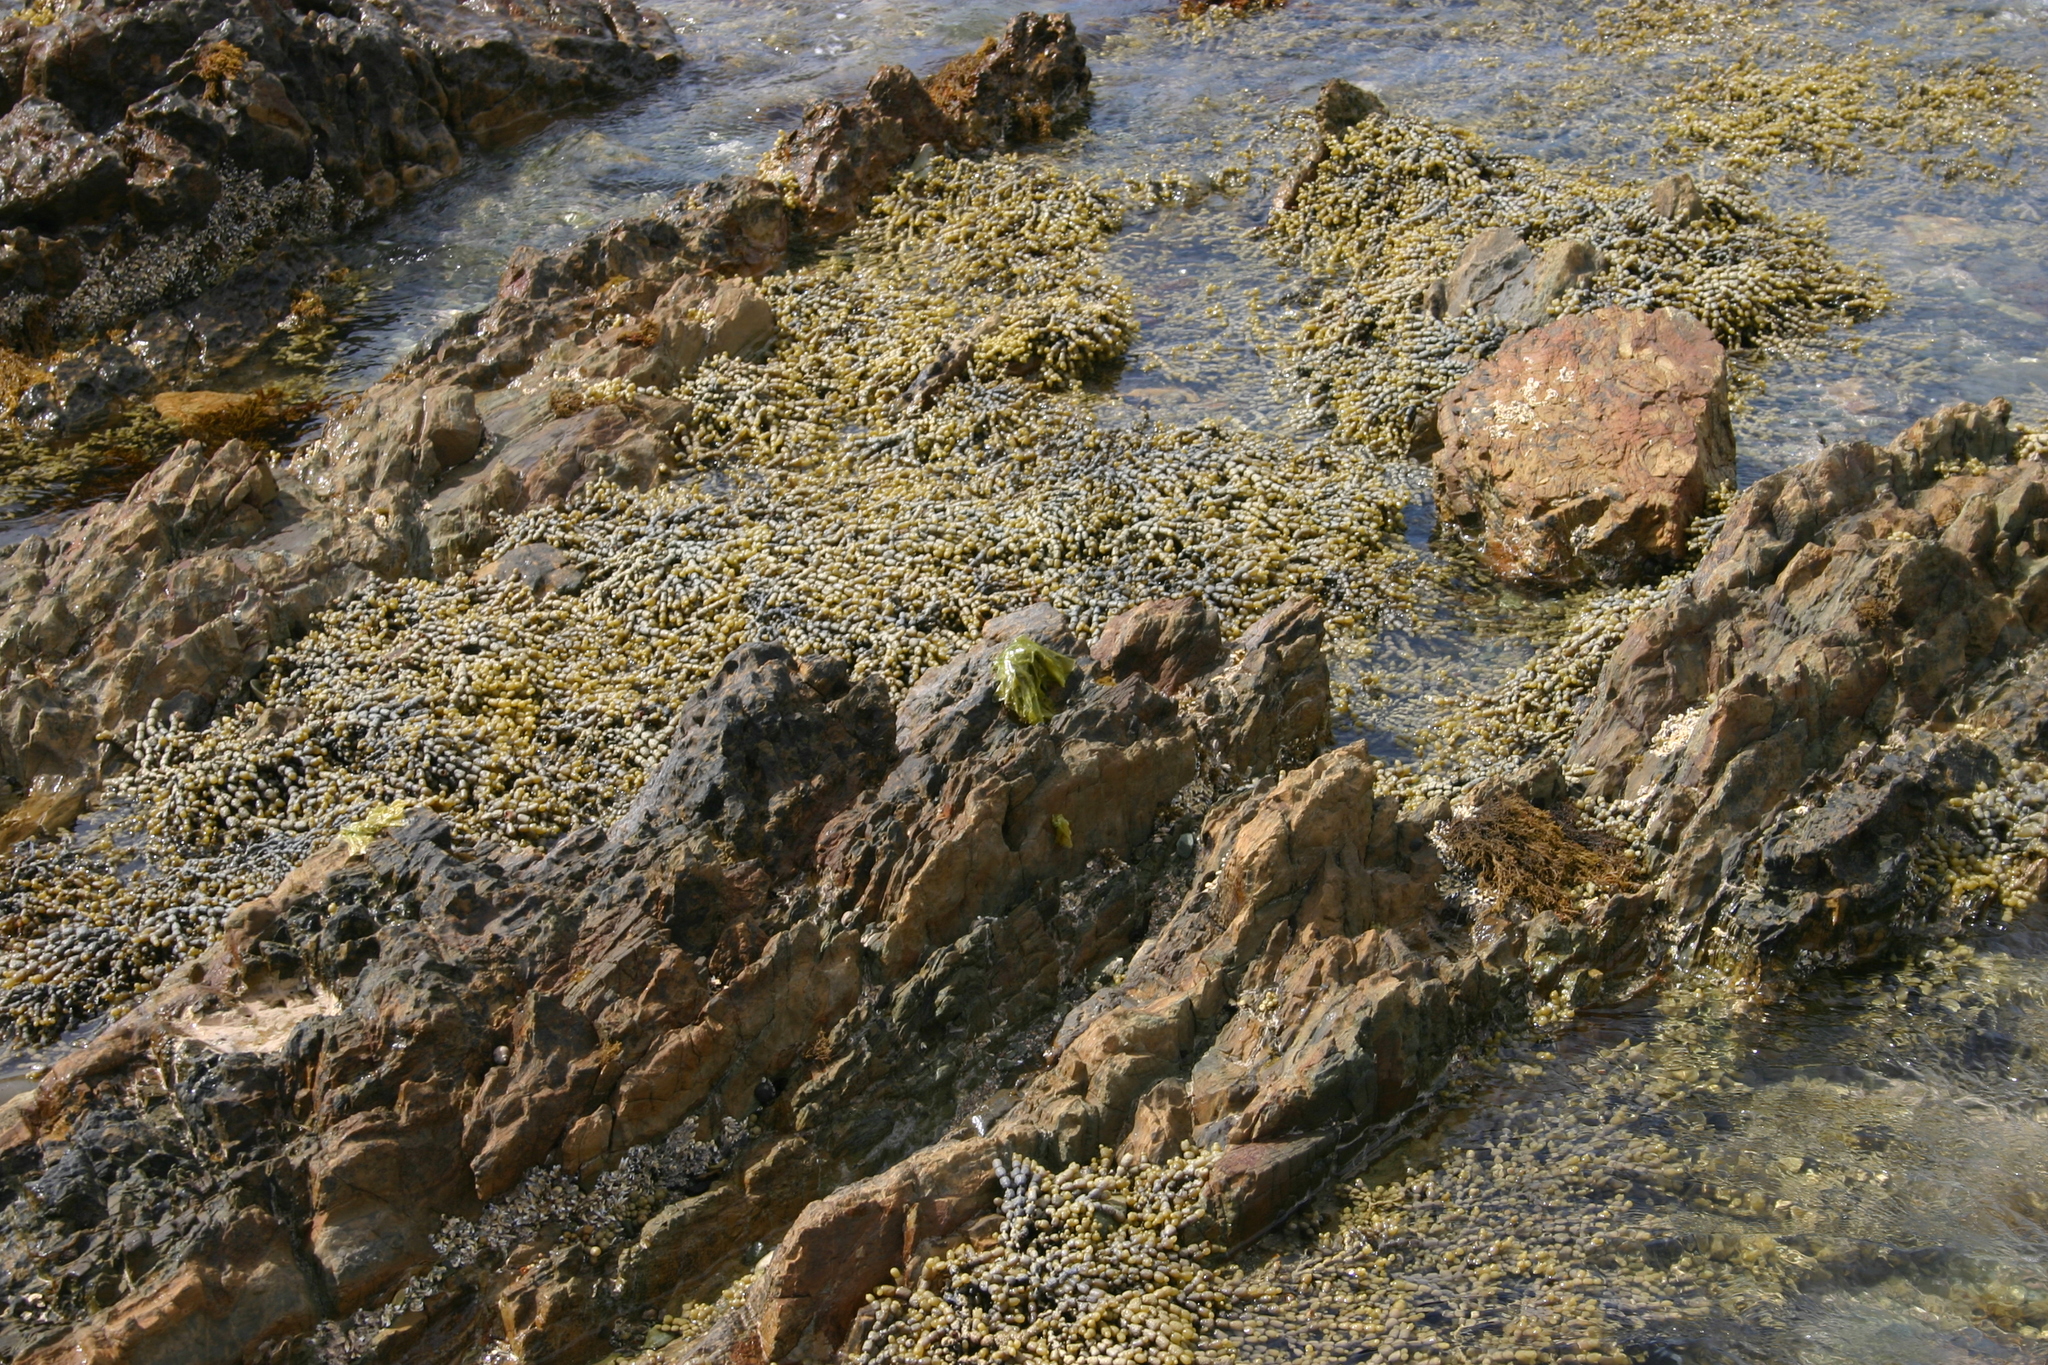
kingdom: Chromista
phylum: Ochrophyta
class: Phaeophyceae
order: Fucales
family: Hormosiraceae
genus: Hormosira
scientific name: Hormosira banksii
